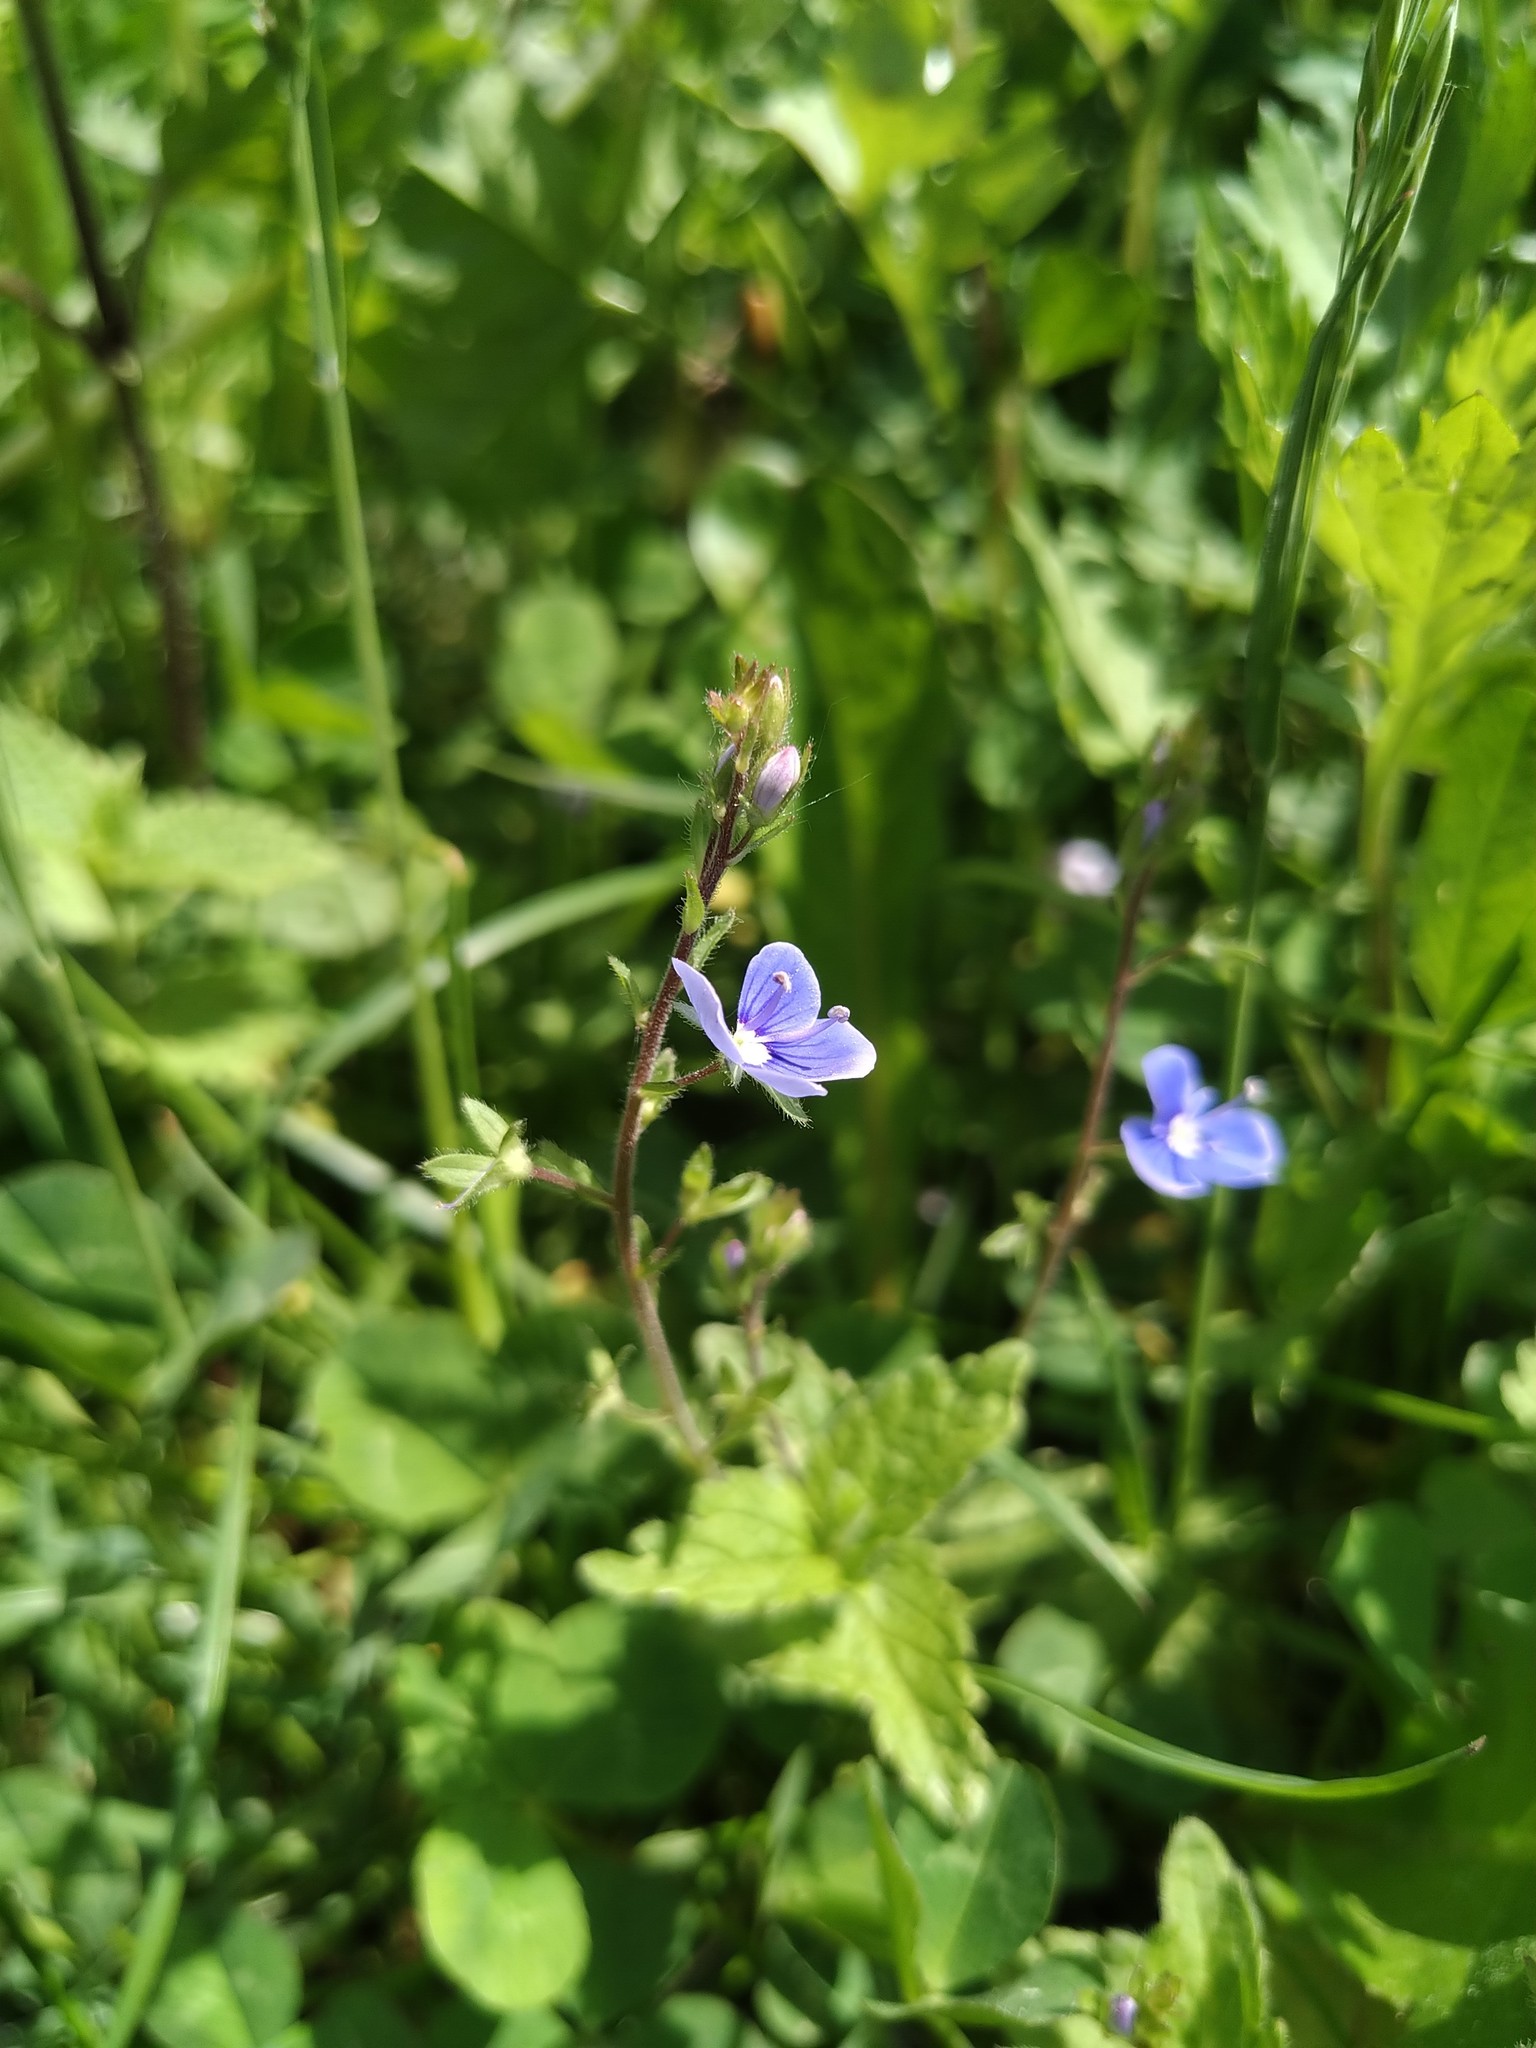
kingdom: Plantae
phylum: Tracheophyta
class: Magnoliopsida
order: Lamiales
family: Plantaginaceae
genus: Veronica
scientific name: Veronica chamaedrys
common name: Germander speedwell
